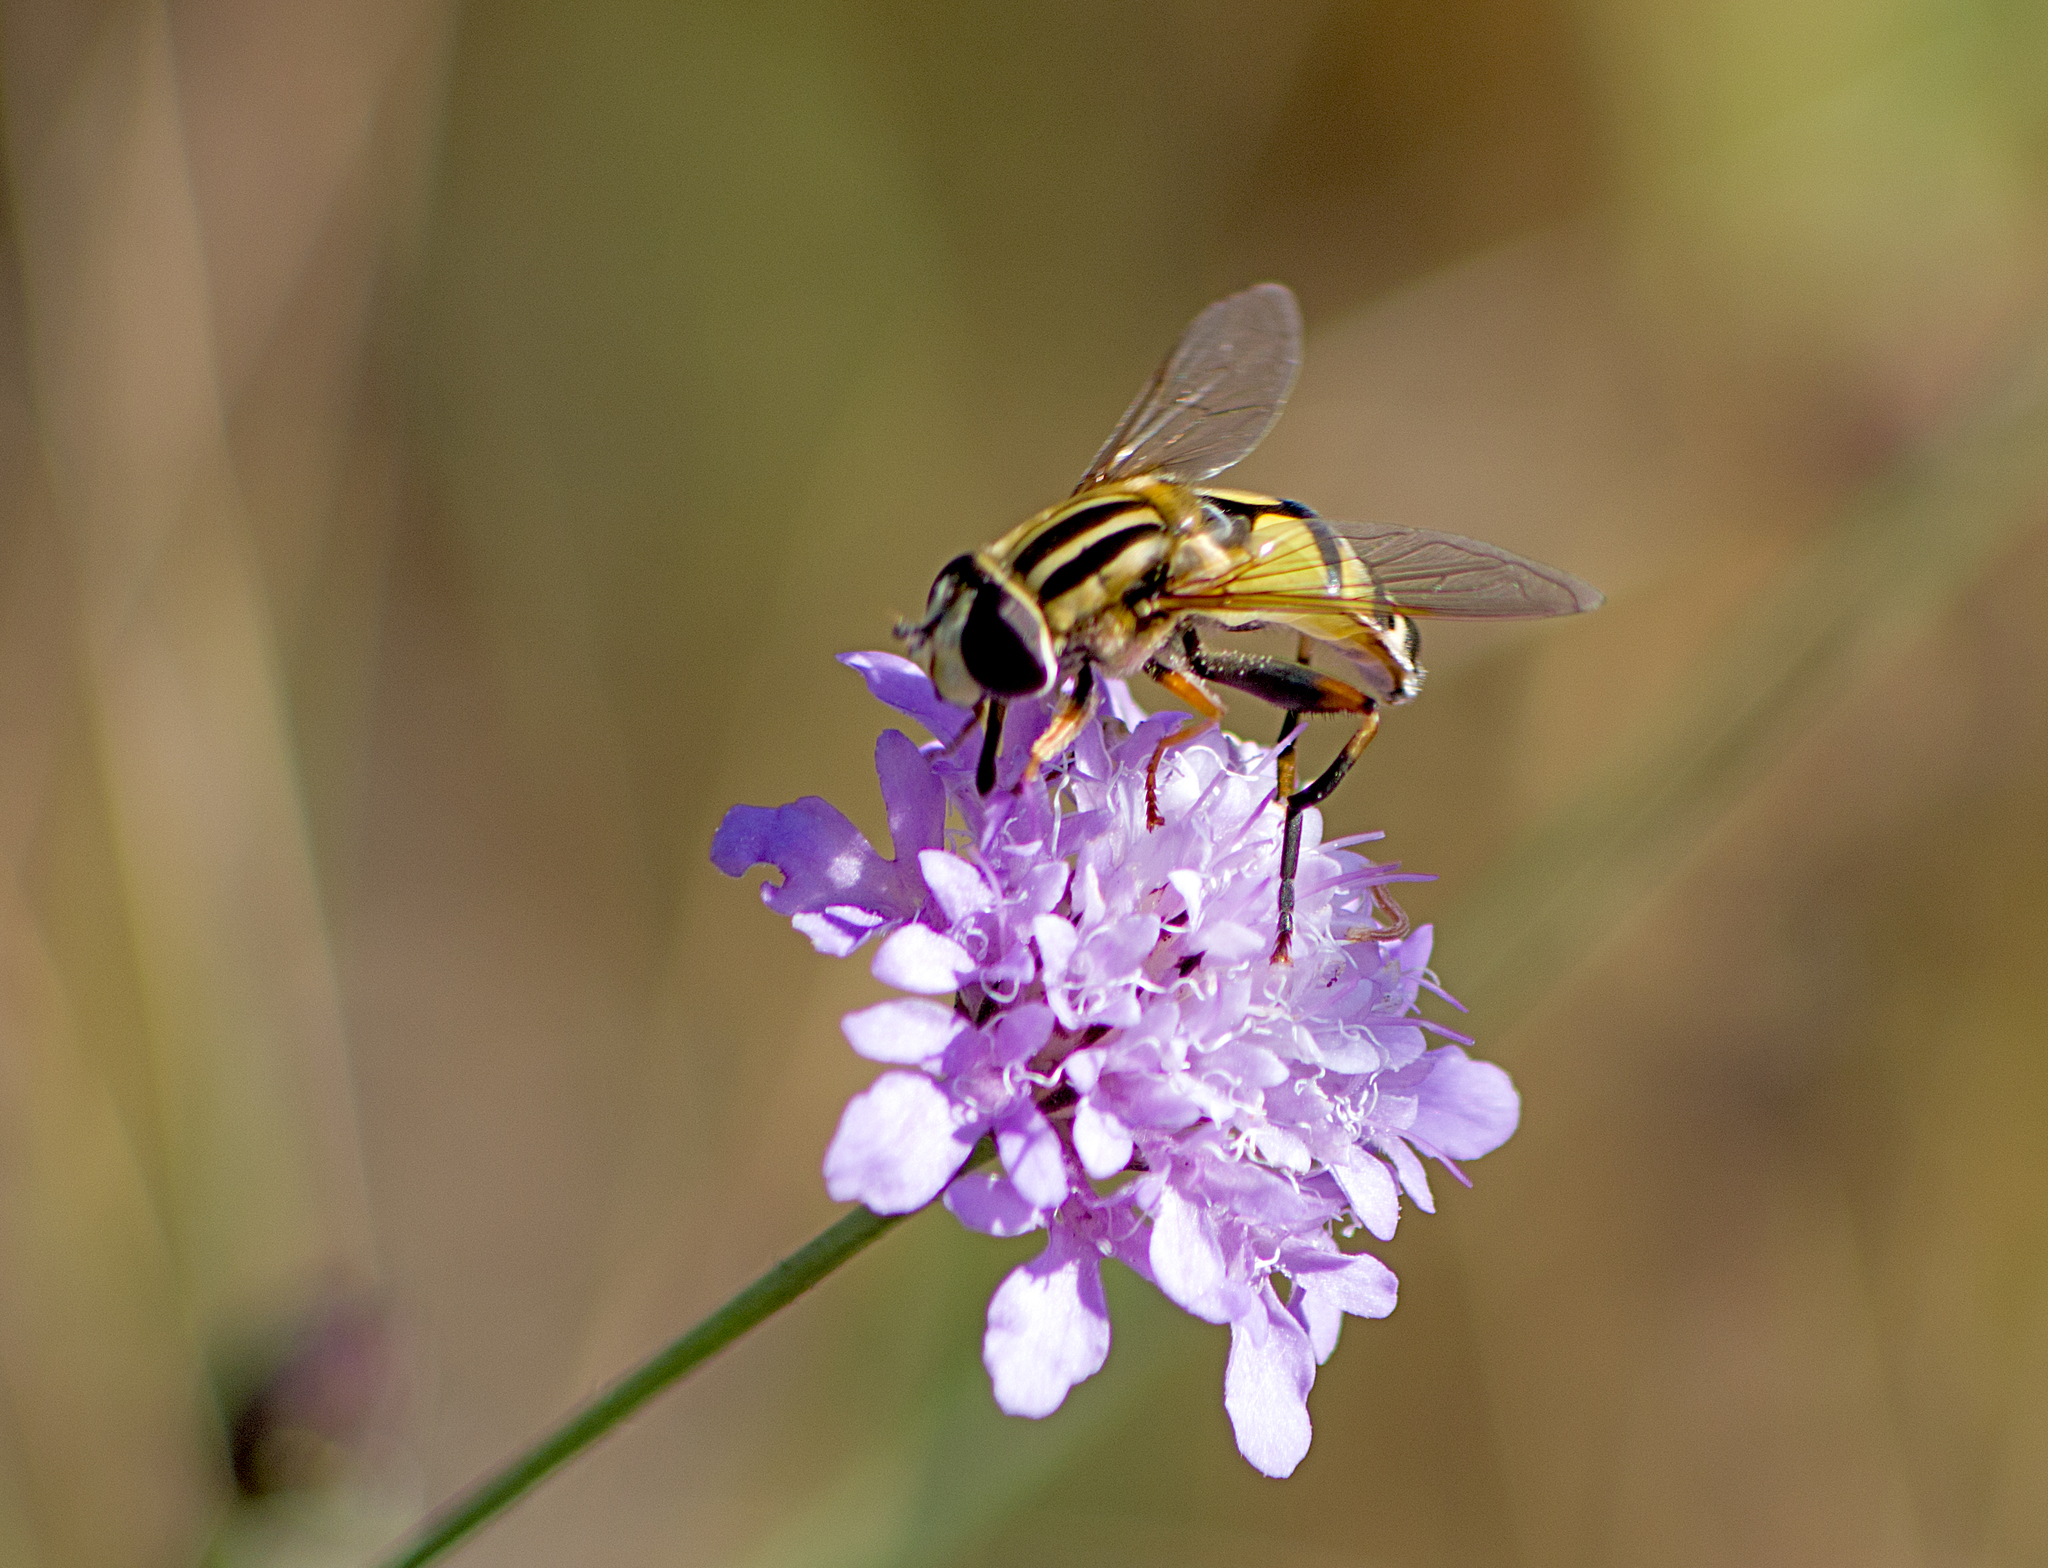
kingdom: Animalia
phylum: Arthropoda
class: Insecta
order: Diptera
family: Syrphidae
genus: Helophilus
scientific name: Helophilus trivittatus
